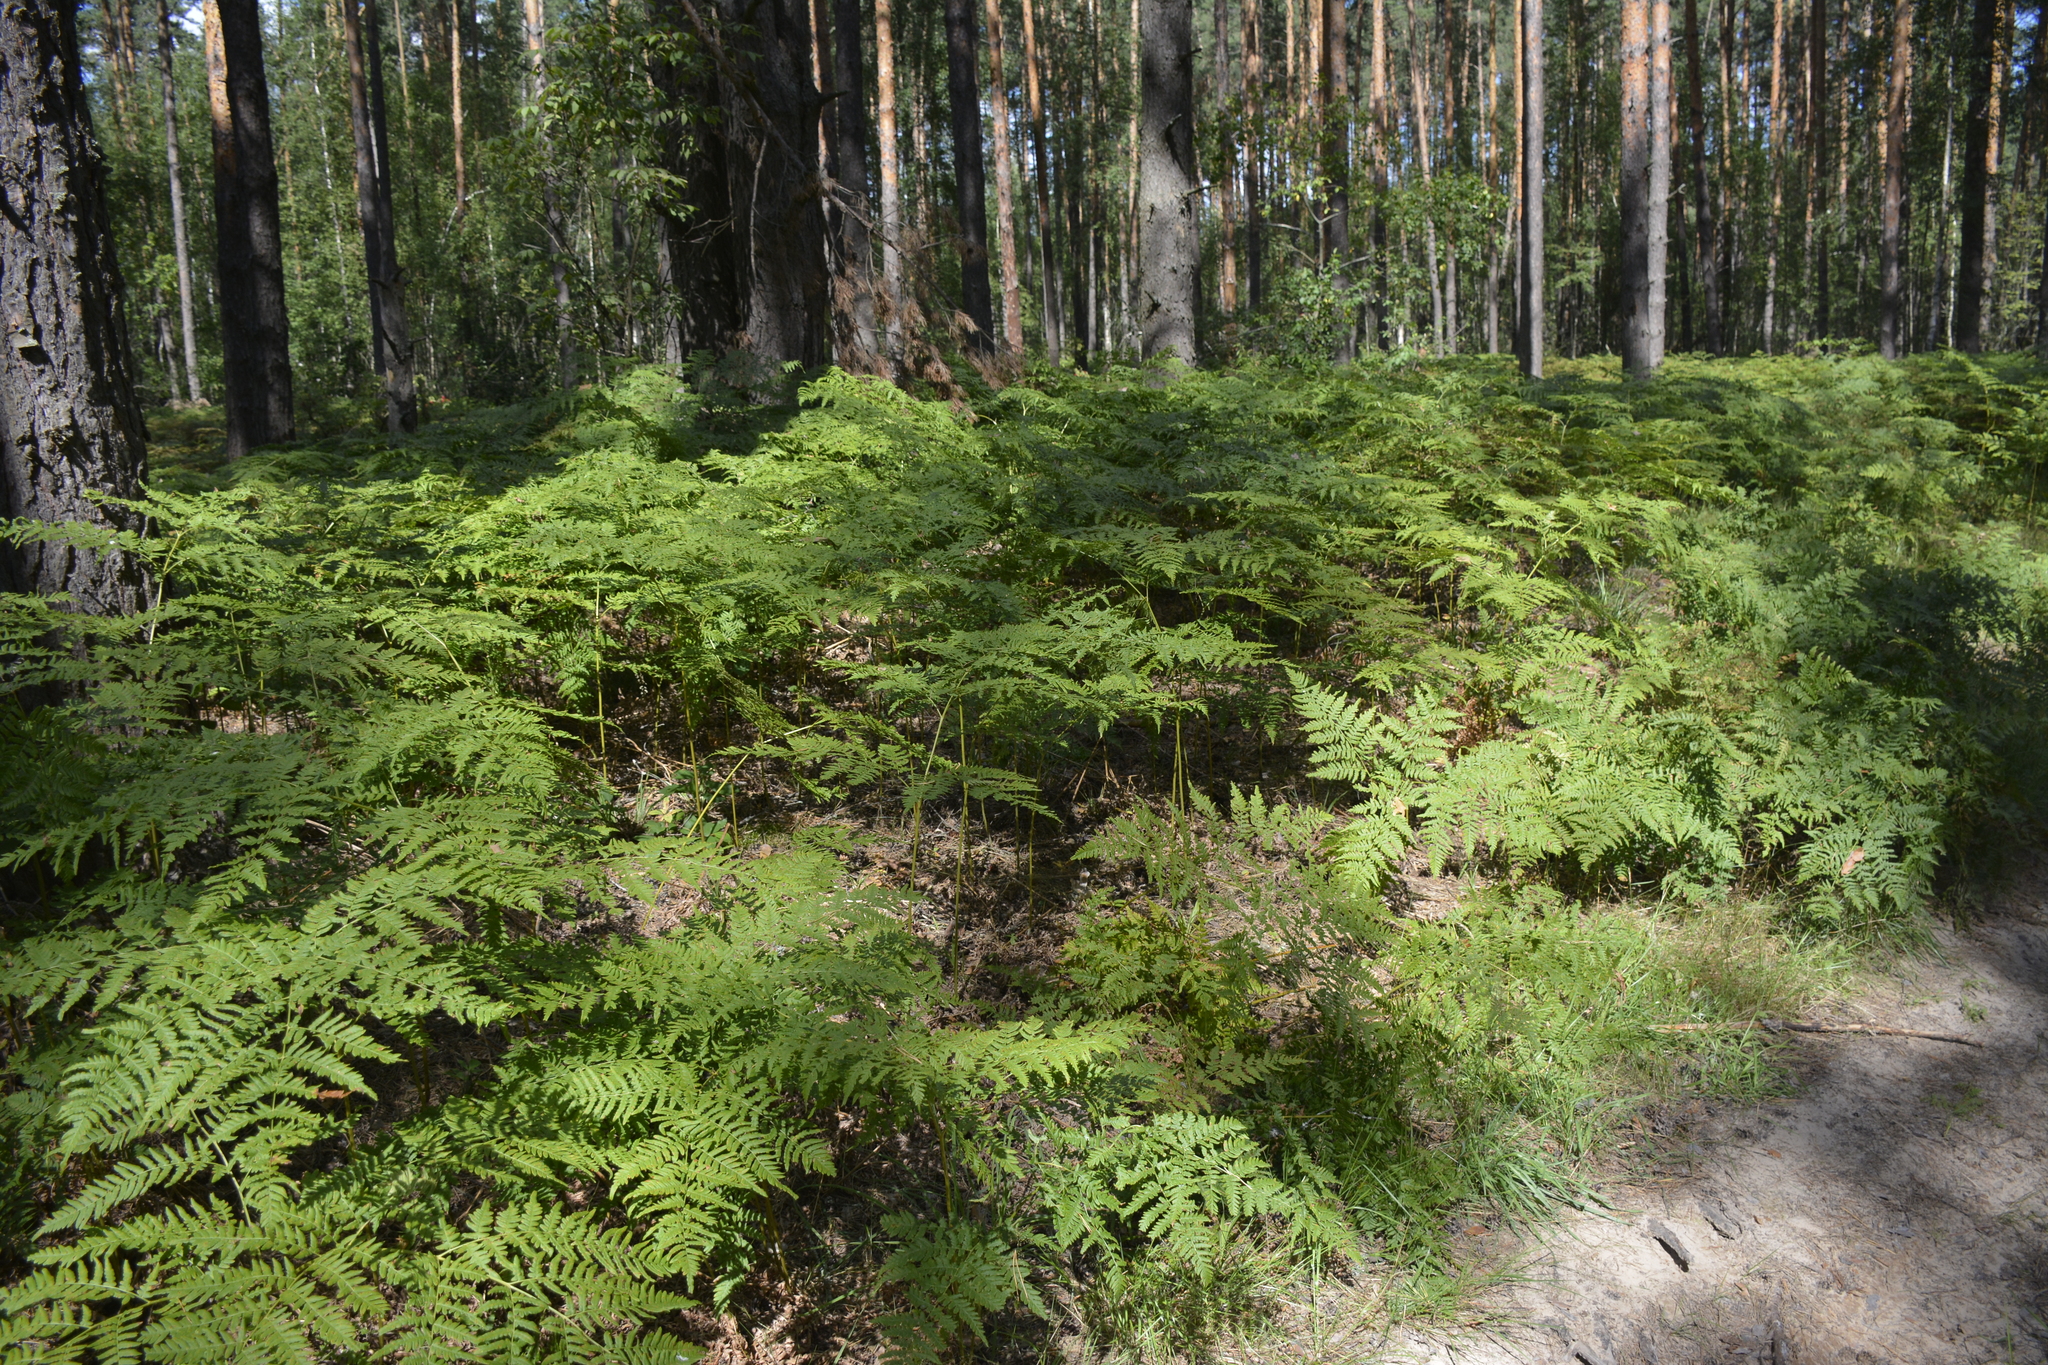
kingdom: Plantae
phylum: Tracheophyta
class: Polypodiopsida
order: Polypodiales
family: Dennstaedtiaceae
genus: Pteridium
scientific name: Pteridium aquilinum
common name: Bracken
